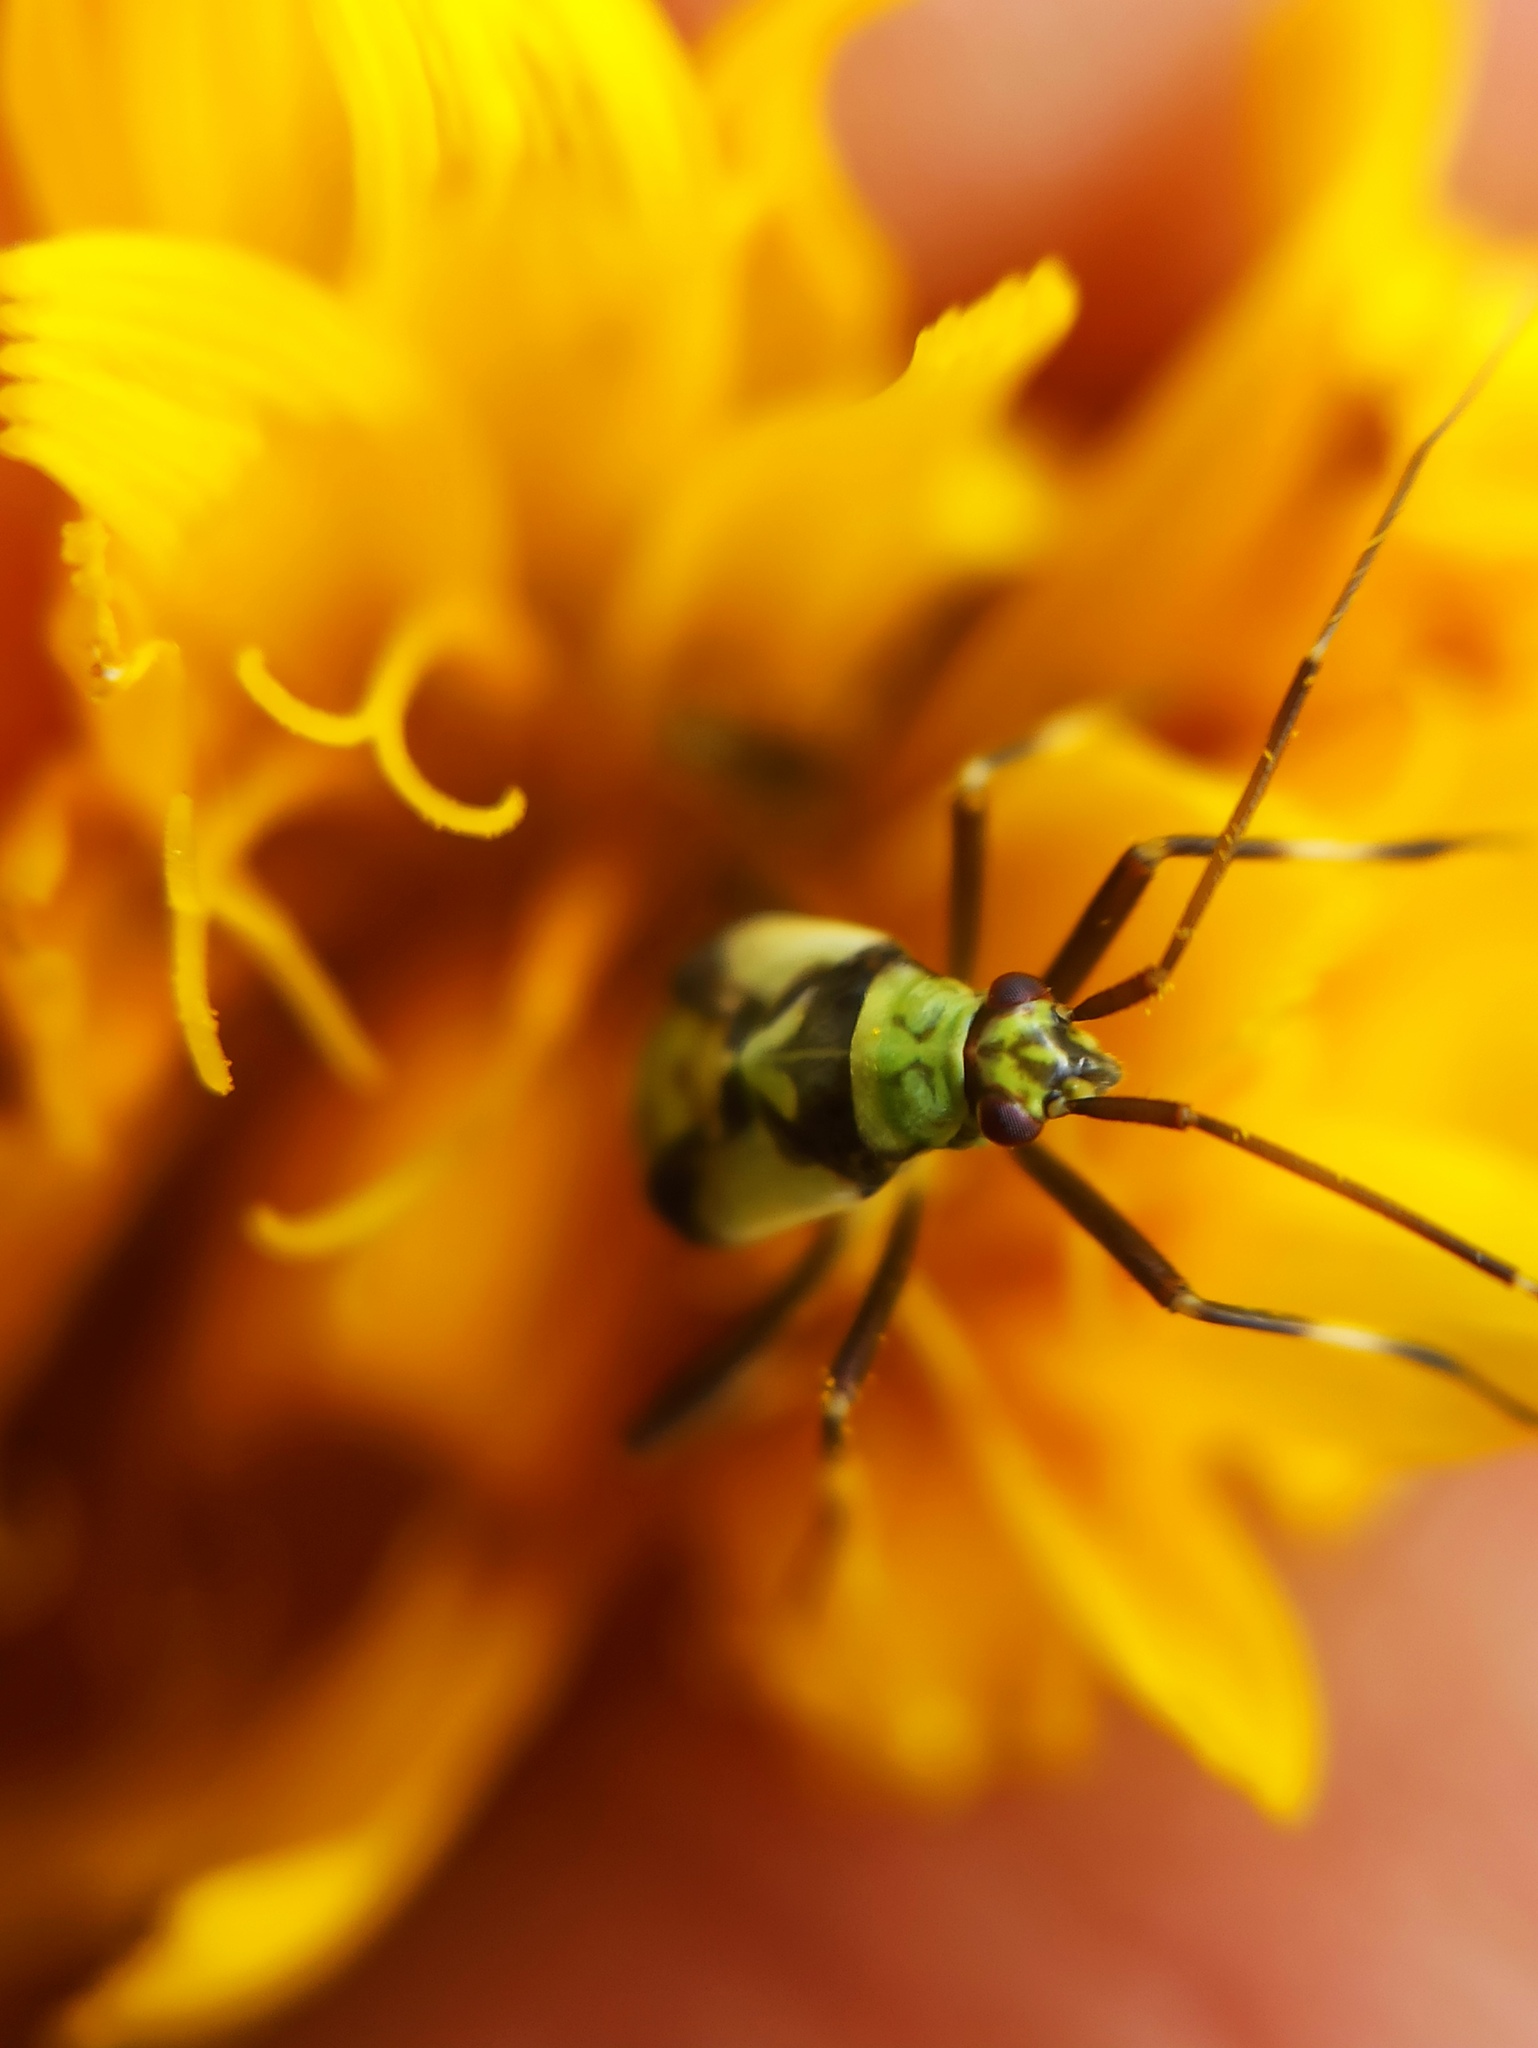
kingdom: Animalia
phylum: Arthropoda
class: Insecta
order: Hemiptera
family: Miridae
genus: Calocoris
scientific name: Calocoris alpestris
